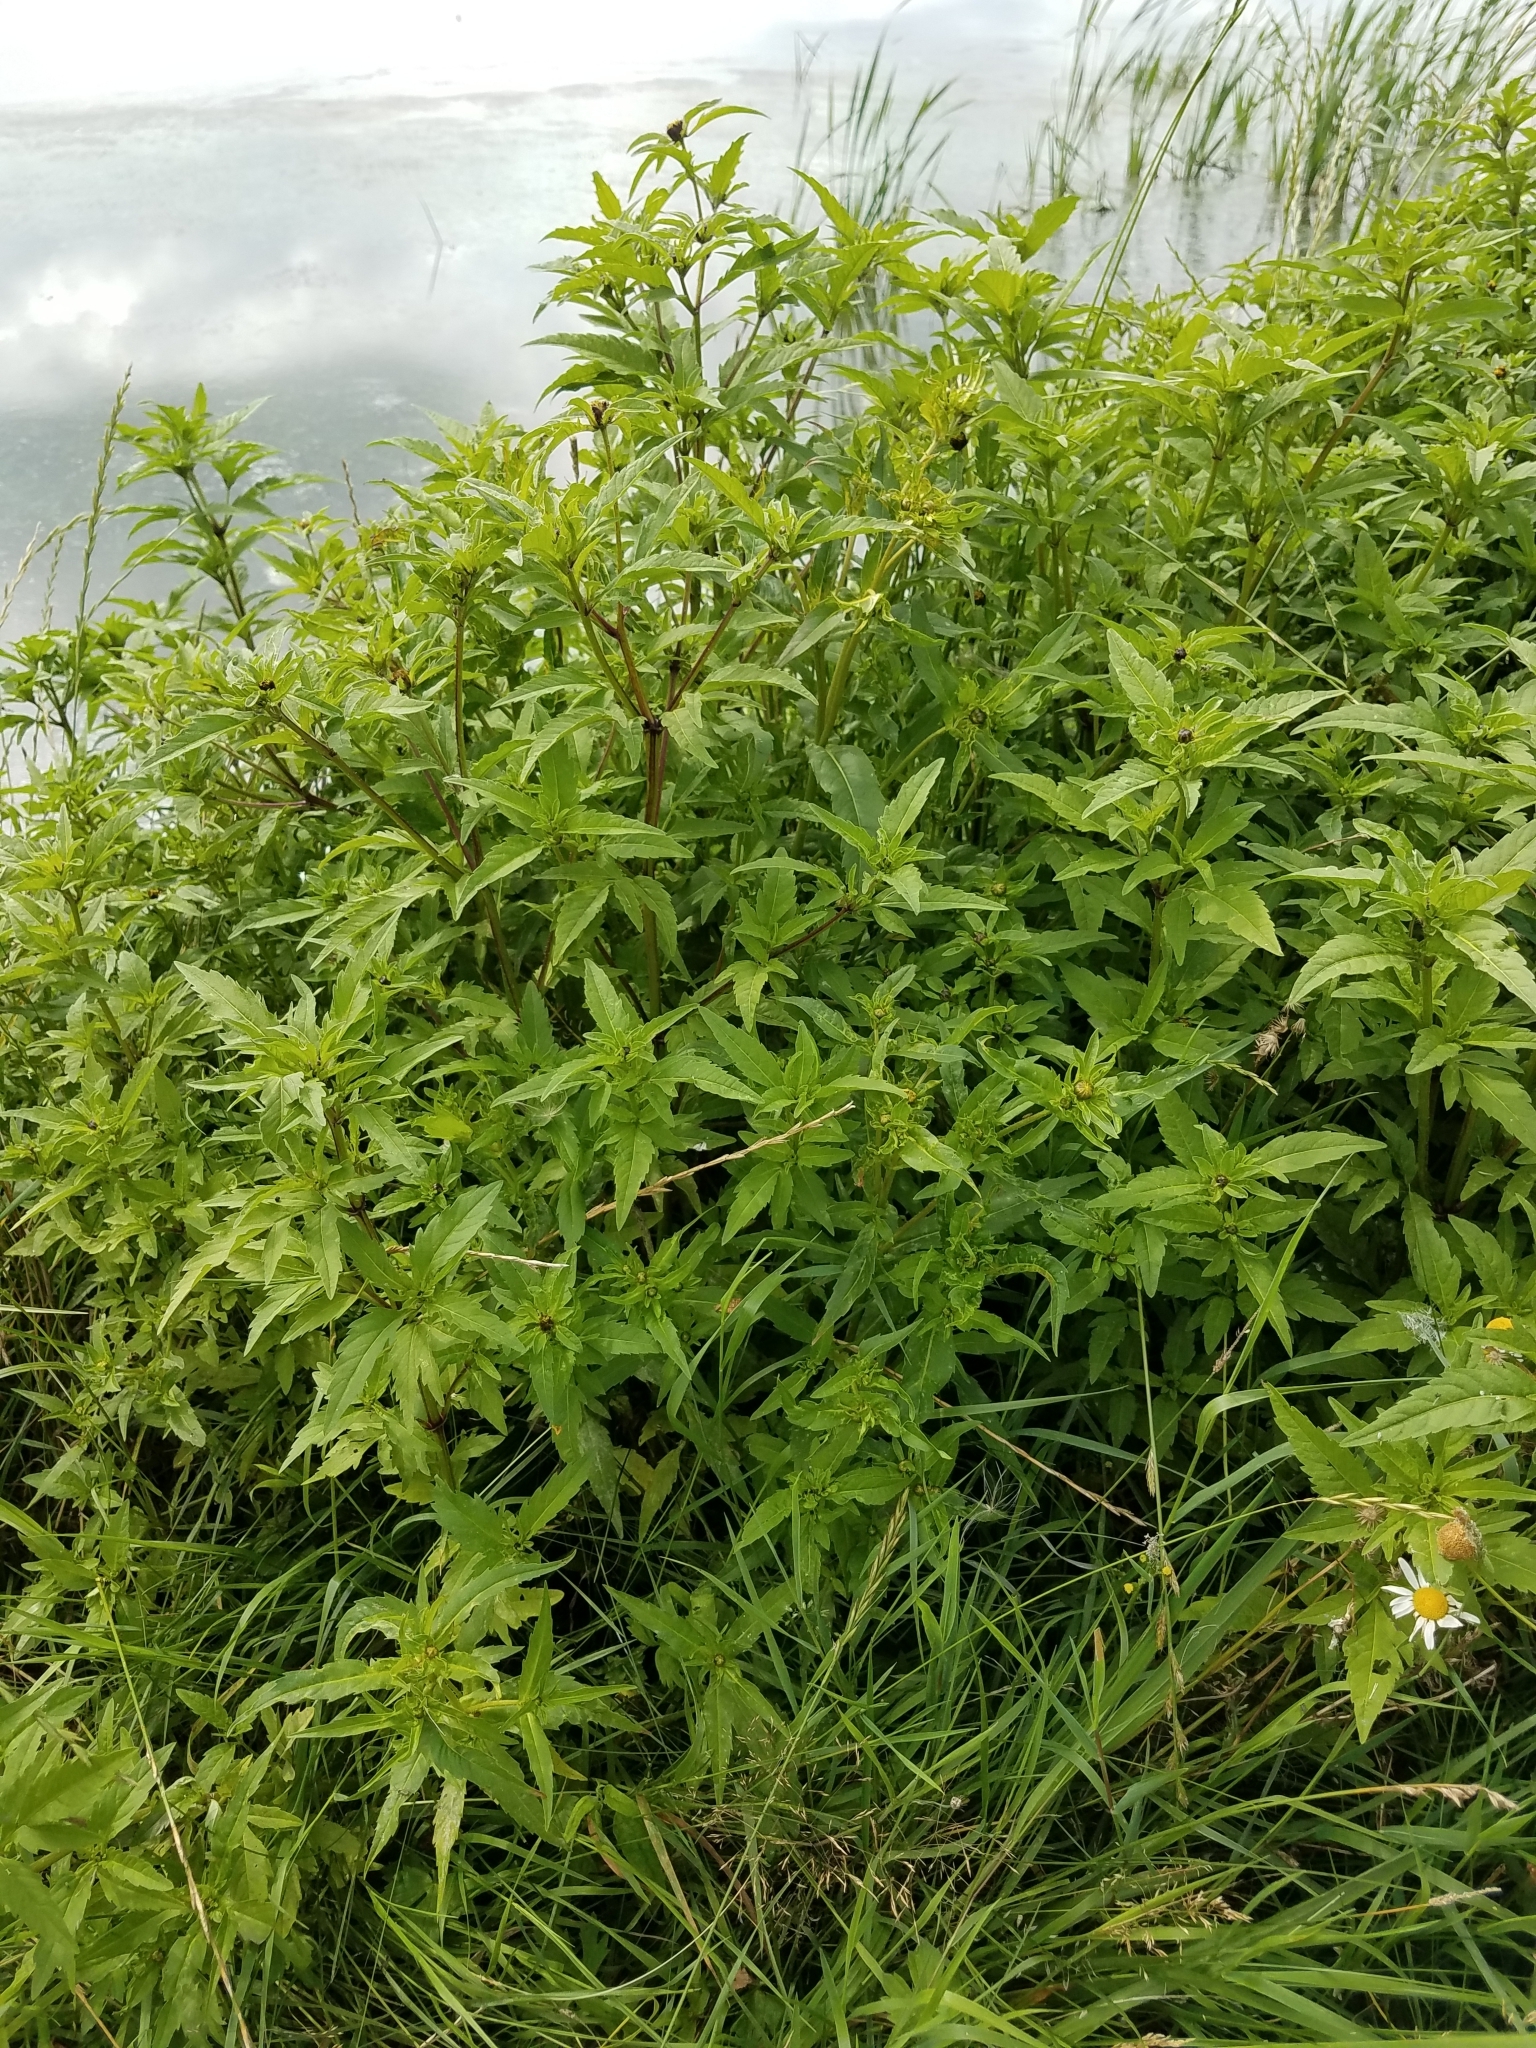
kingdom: Plantae
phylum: Tracheophyta
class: Magnoliopsida
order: Asterales
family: Asteraceae
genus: Bidens
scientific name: Bidens cernua
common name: Nodding bur-marigold
